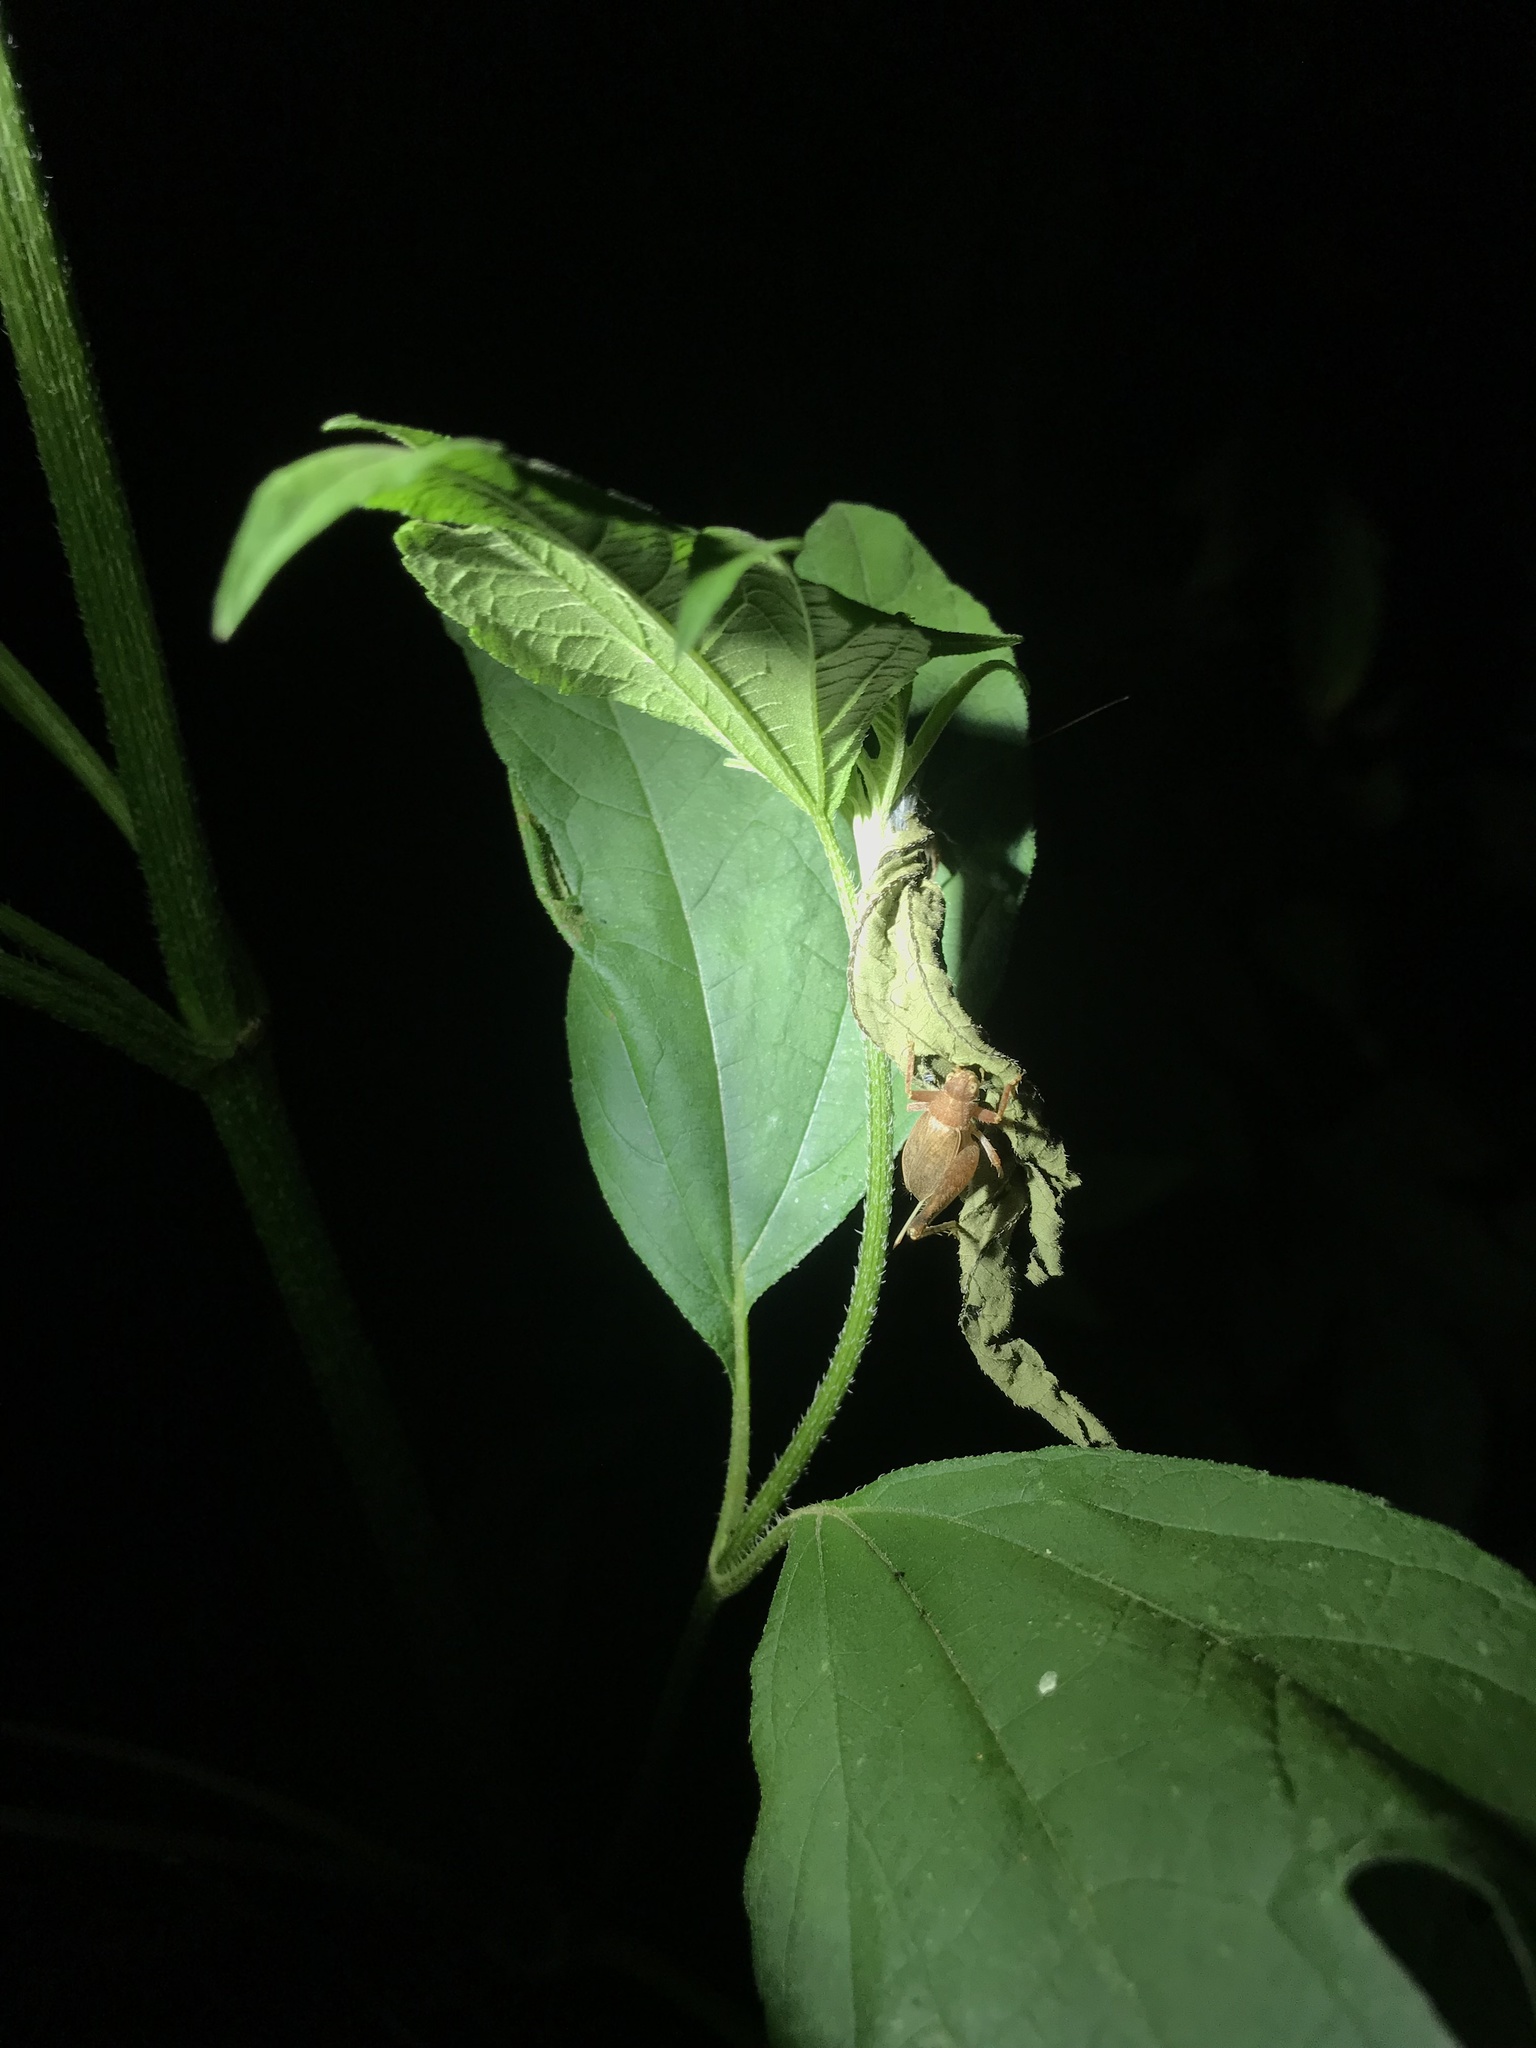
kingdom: Animalia
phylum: Arthropoda
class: Insecta
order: Orthoptera
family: Gryllidae
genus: Hapithus
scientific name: Hapithus agitator
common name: Restless bush cricket
